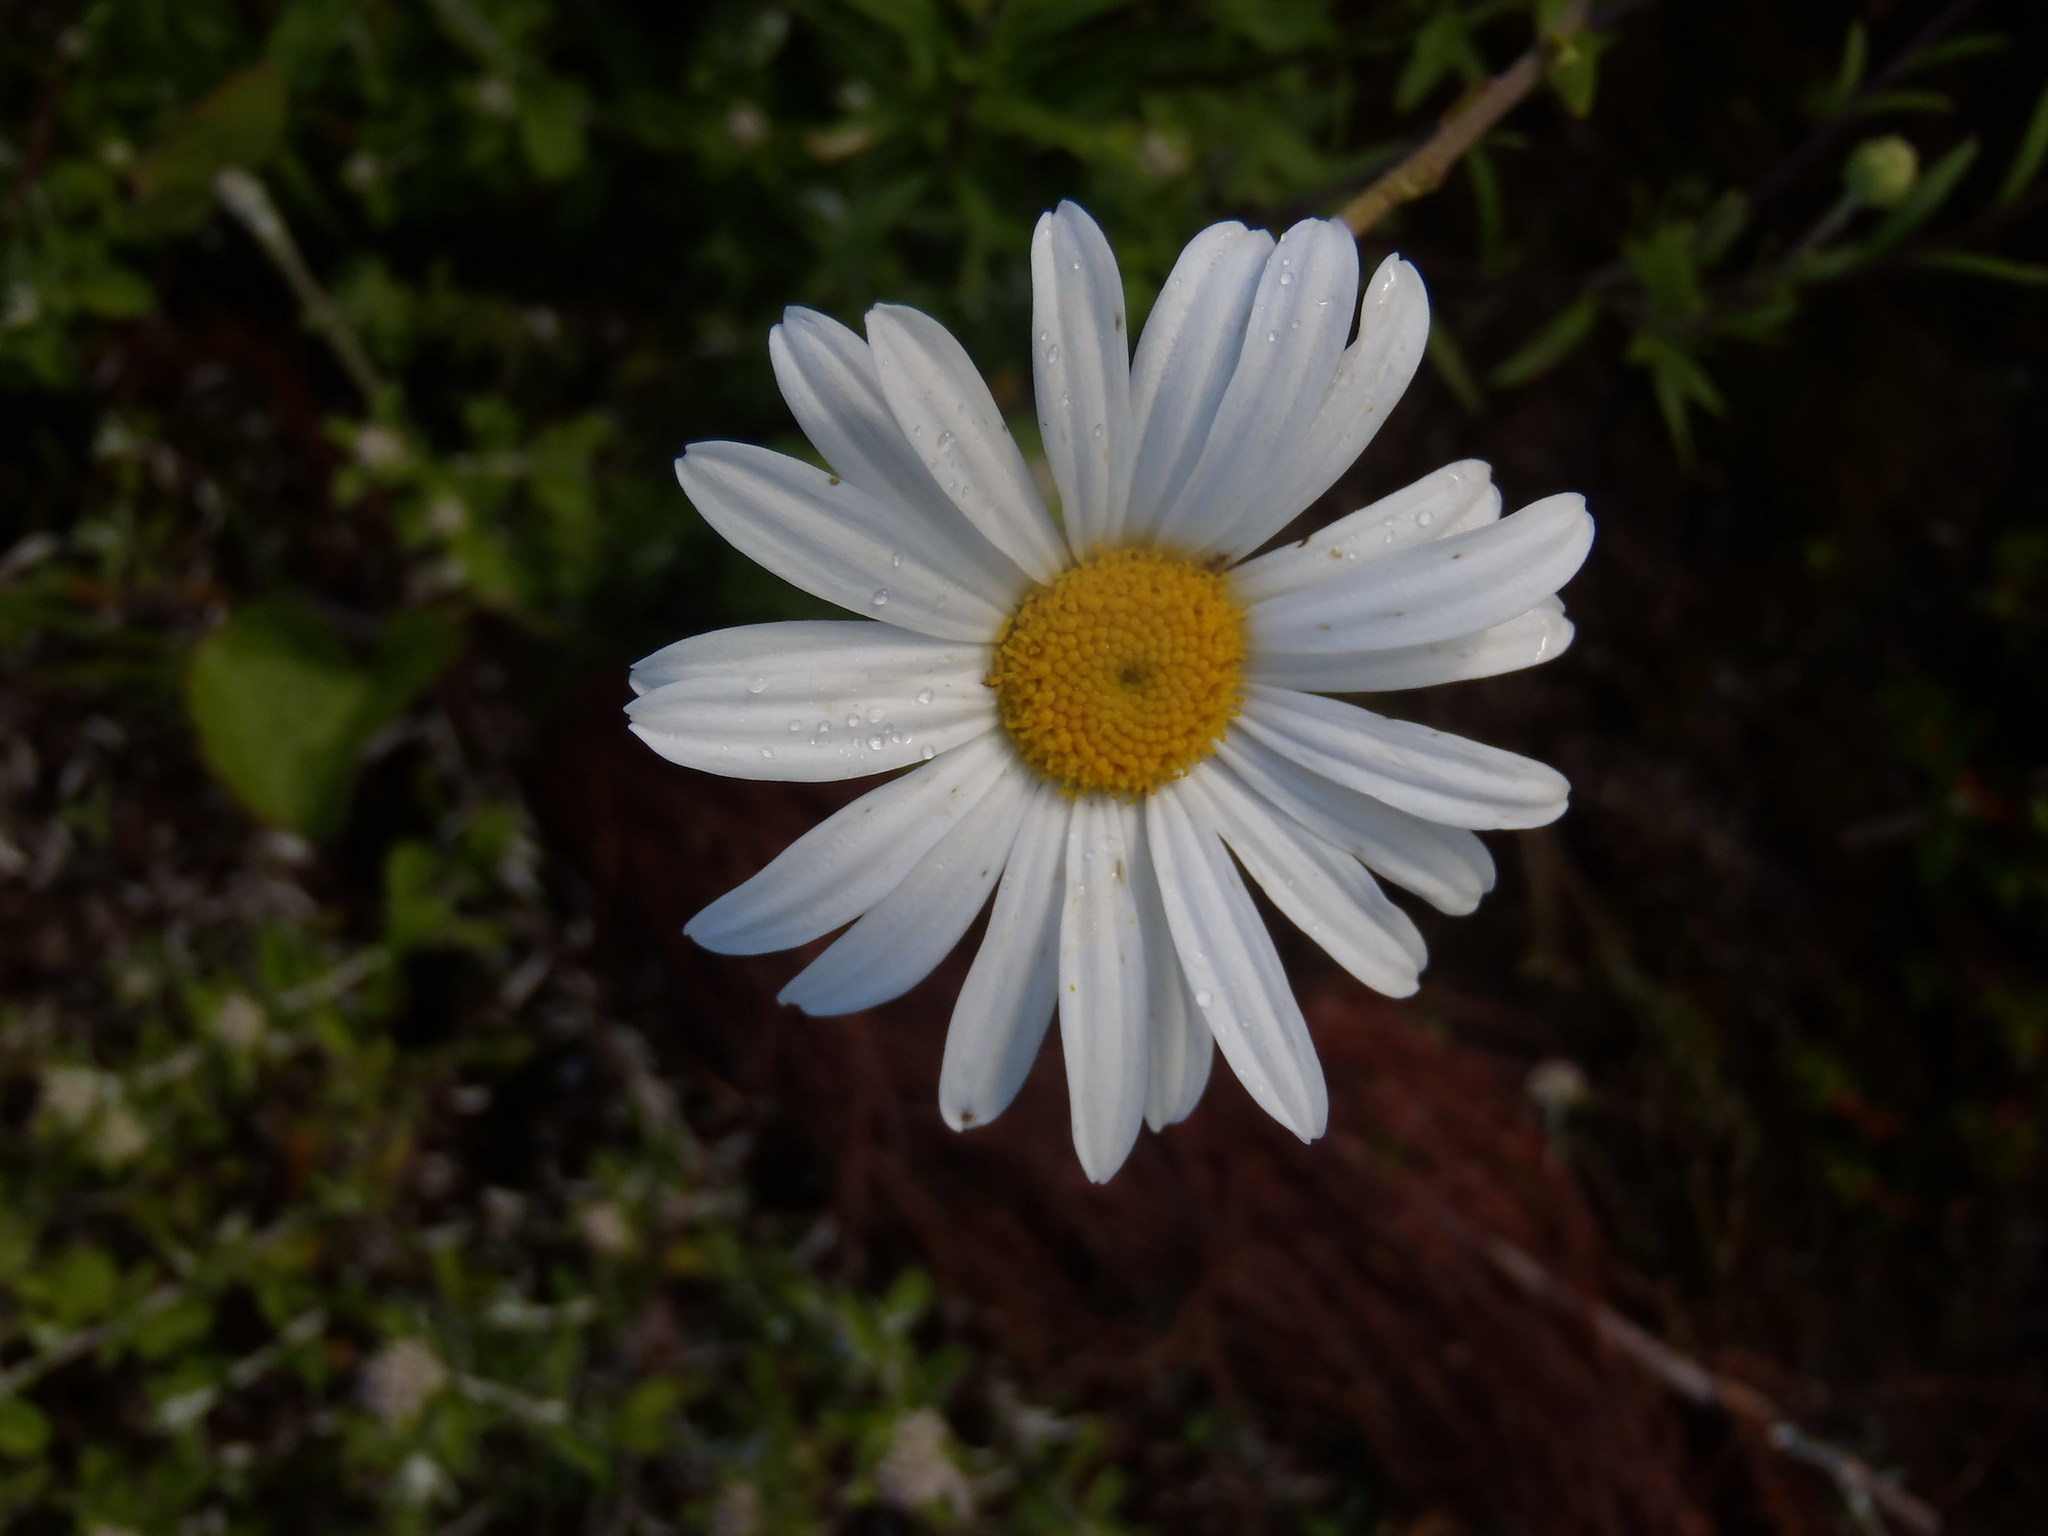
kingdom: Plantae
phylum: Tracheophyta
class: Magnoliopsida
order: Asterales
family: Asteraceae
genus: Osmitopsis
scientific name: Osmitopsis osmitoides
